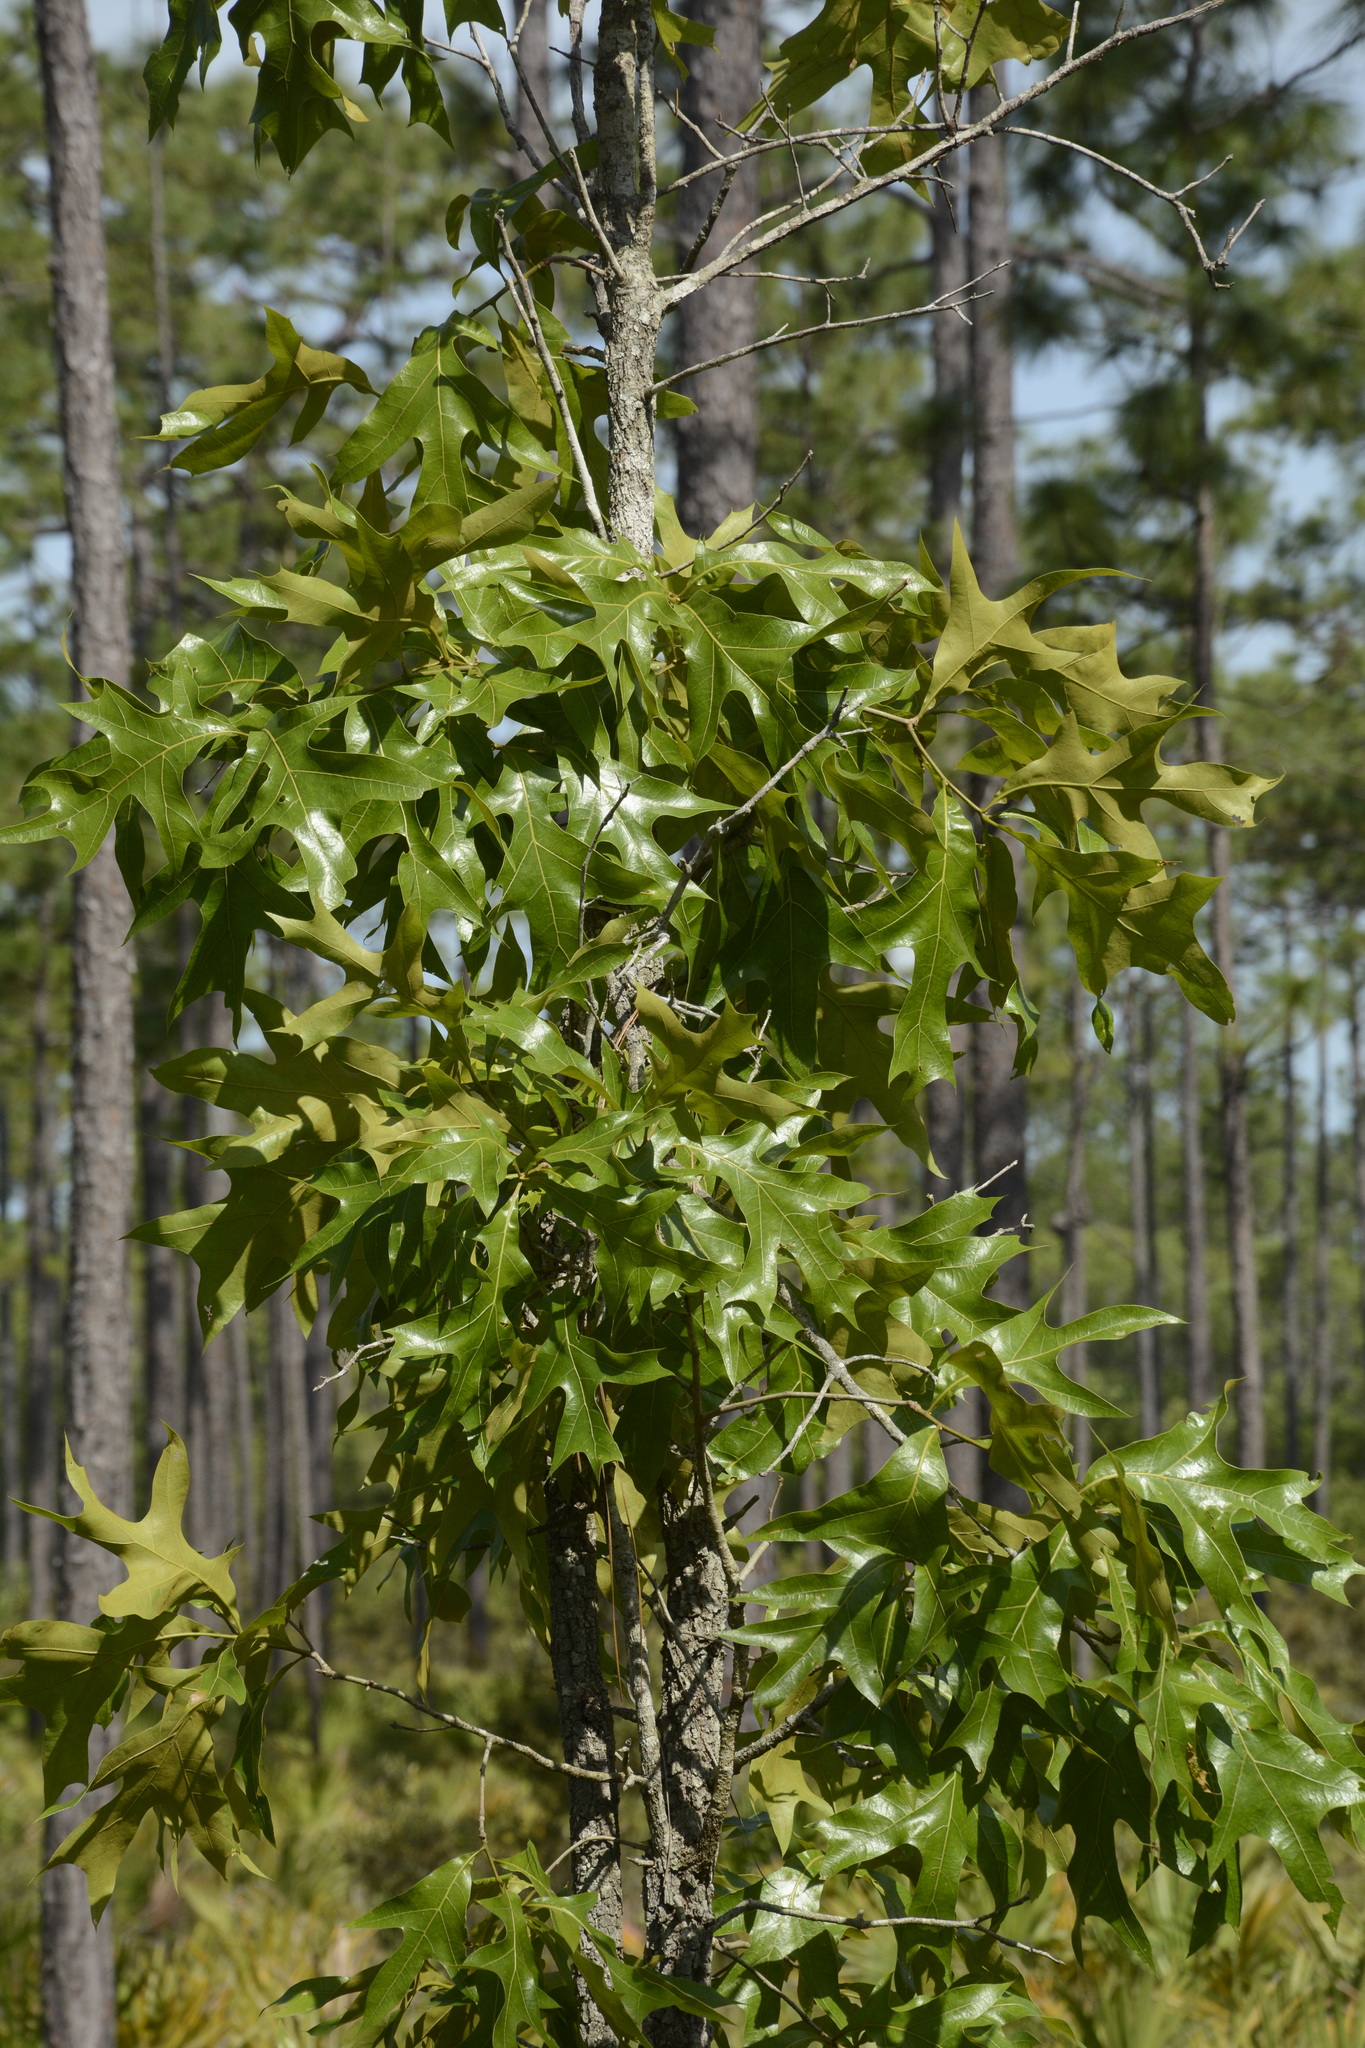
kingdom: Plantae
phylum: Tracheophyta
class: Magnoliopsida
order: Fagales
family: Fagaceae
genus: Quercus
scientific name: Quercus laevis
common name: Turkey oak
